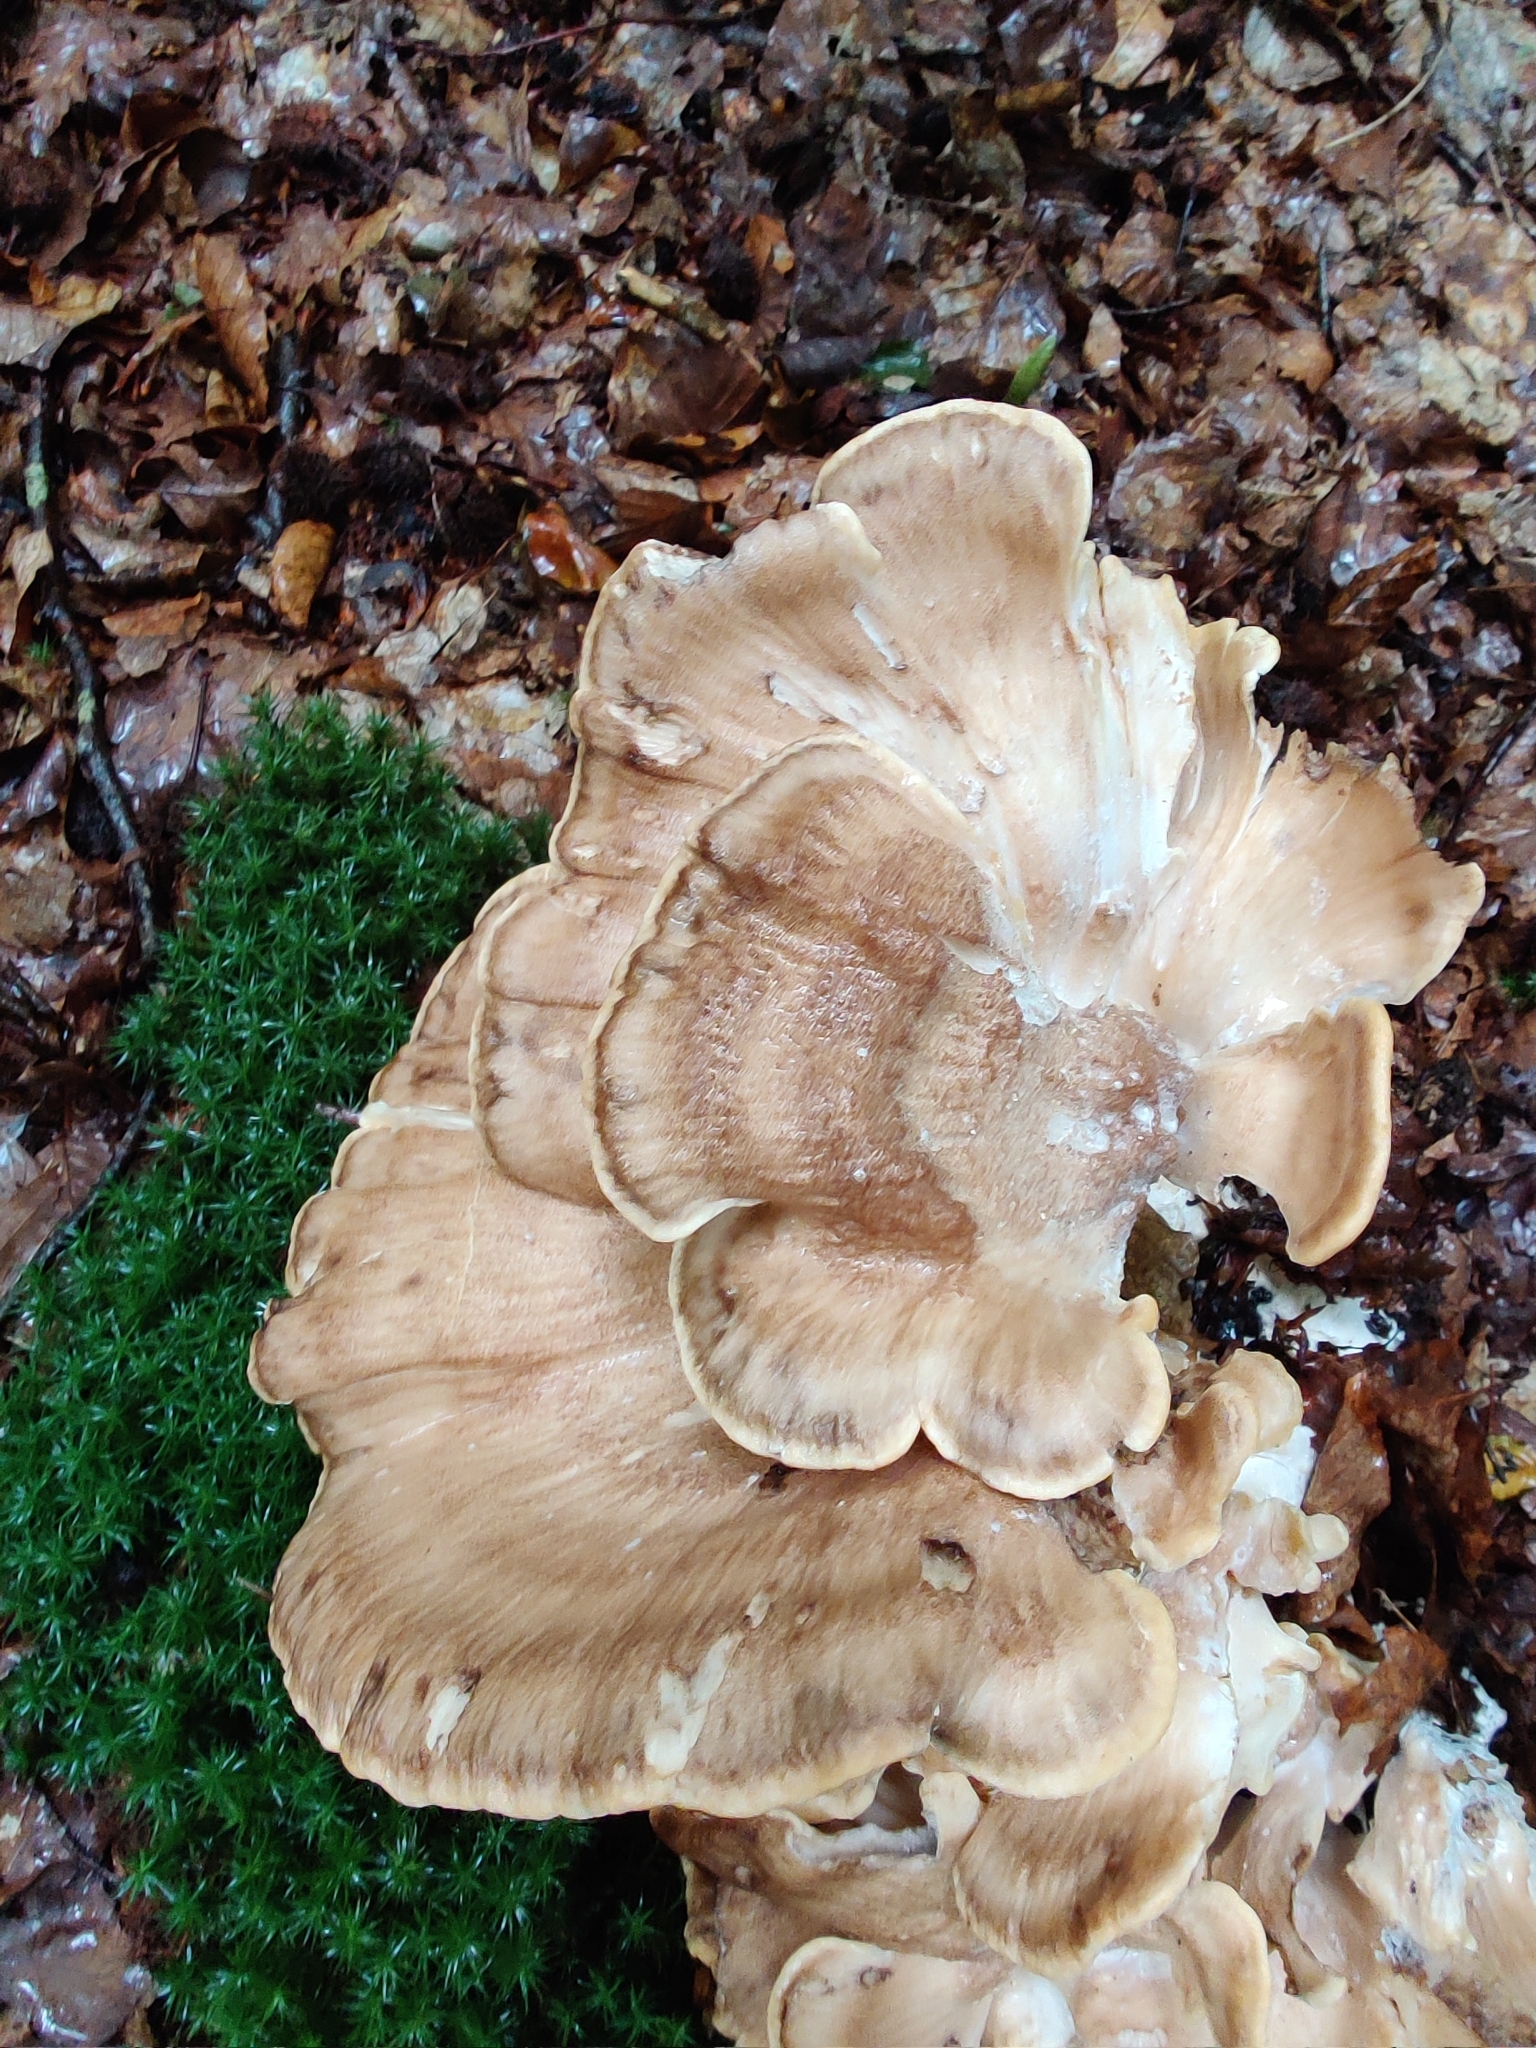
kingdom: Fungi
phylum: Basidiomycota
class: Agaricomycetes
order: Polyporales
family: Meripilaceae
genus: Meripilus
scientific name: Meripilus giganteus
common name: Giant polypore
